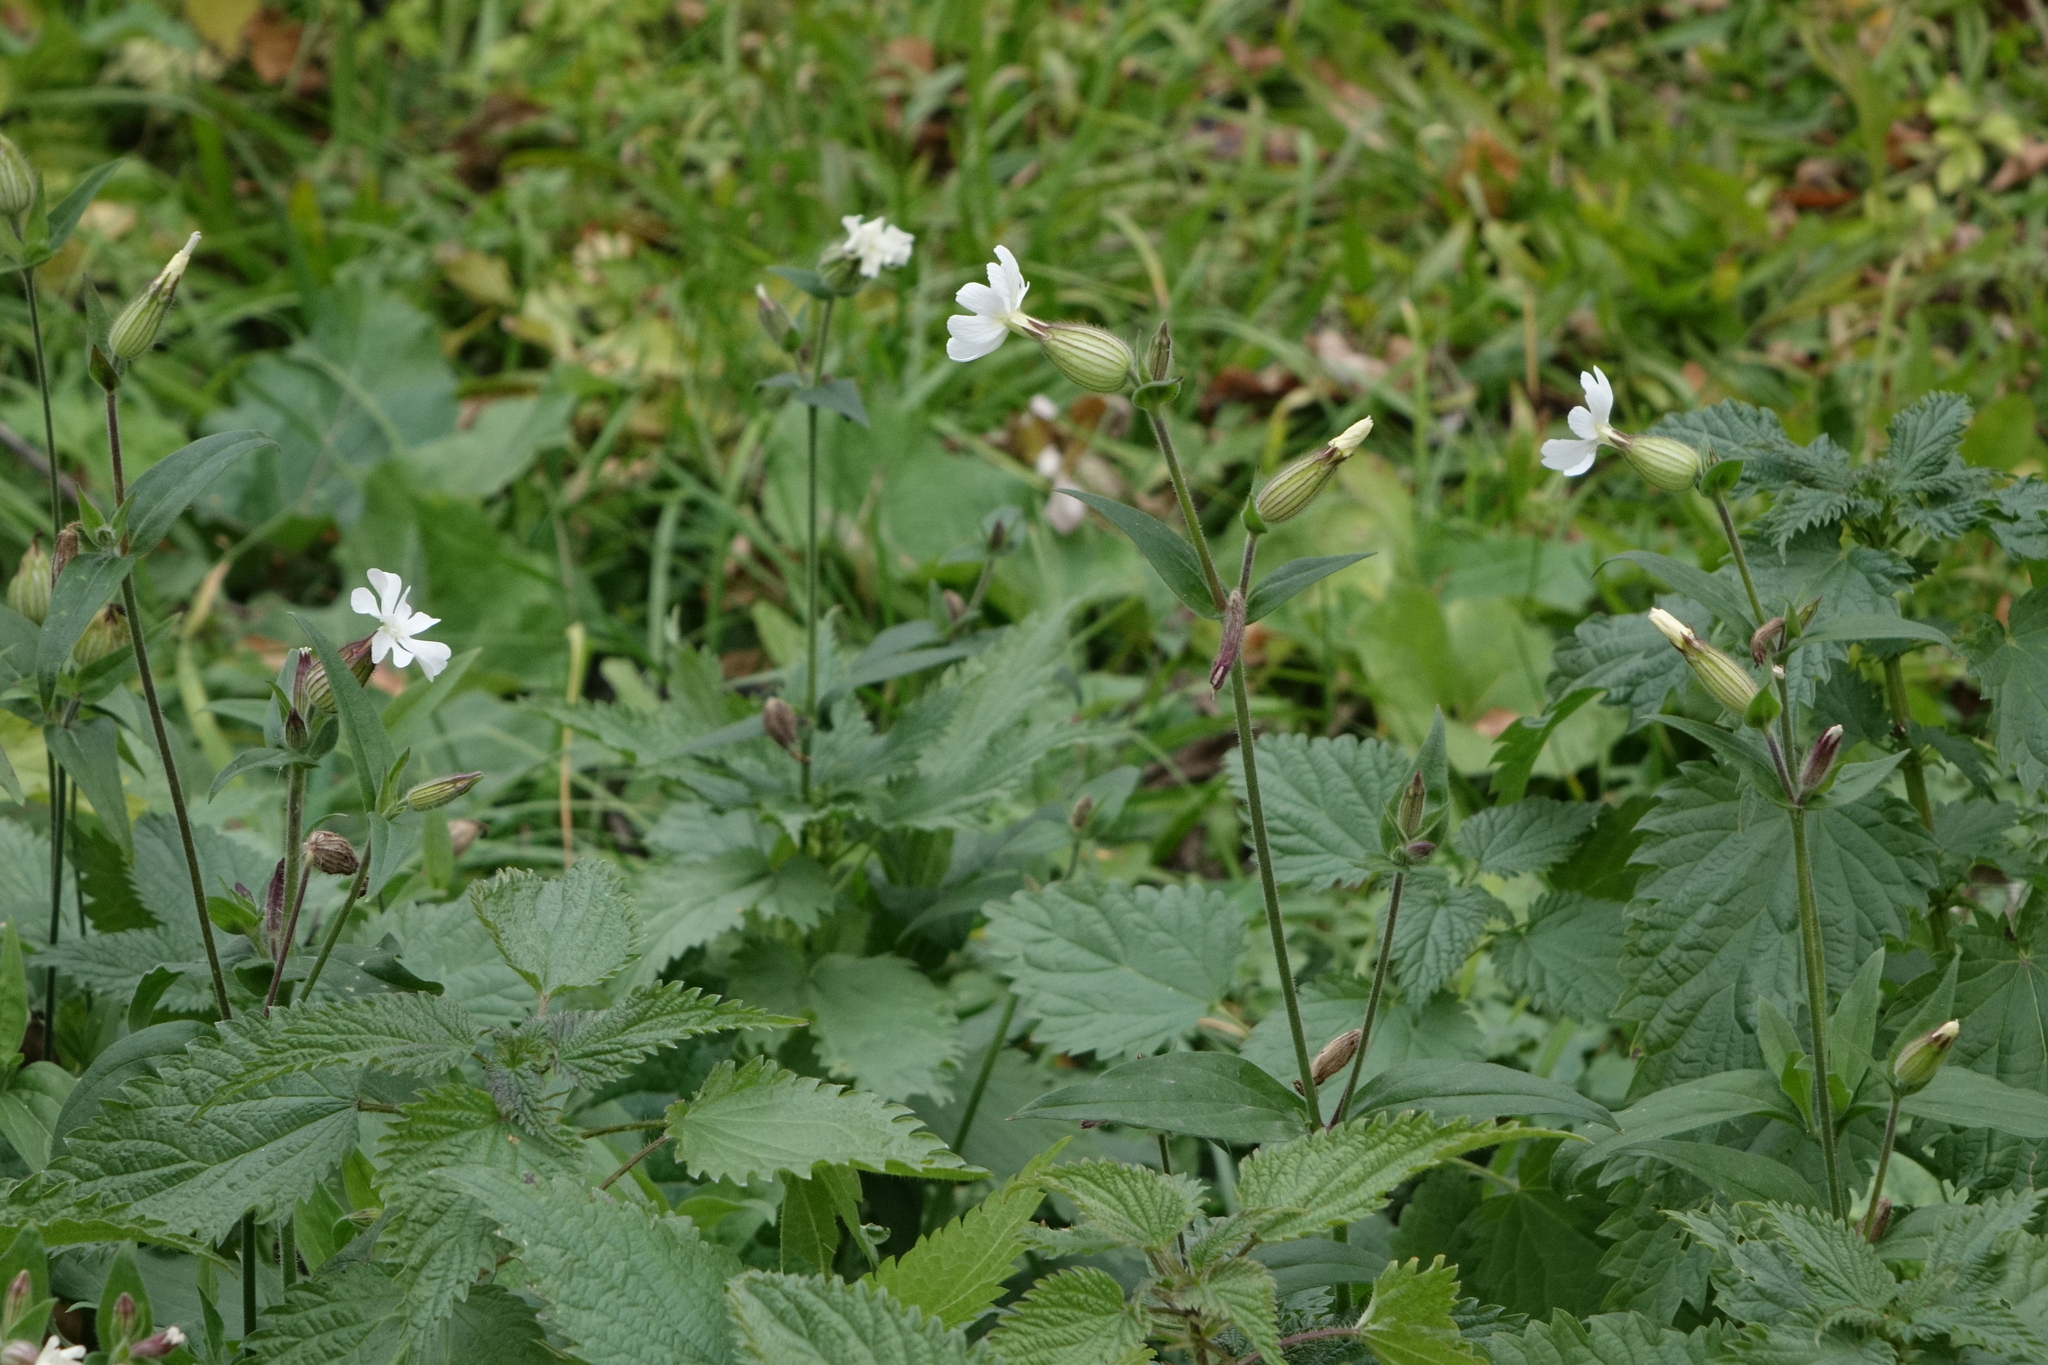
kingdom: Plantae
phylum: Tracheophyta
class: Magnoliopsida
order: Caryophyllales
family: Caryophyllaceae
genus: Silene
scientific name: Silene latifolia
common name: White campion
